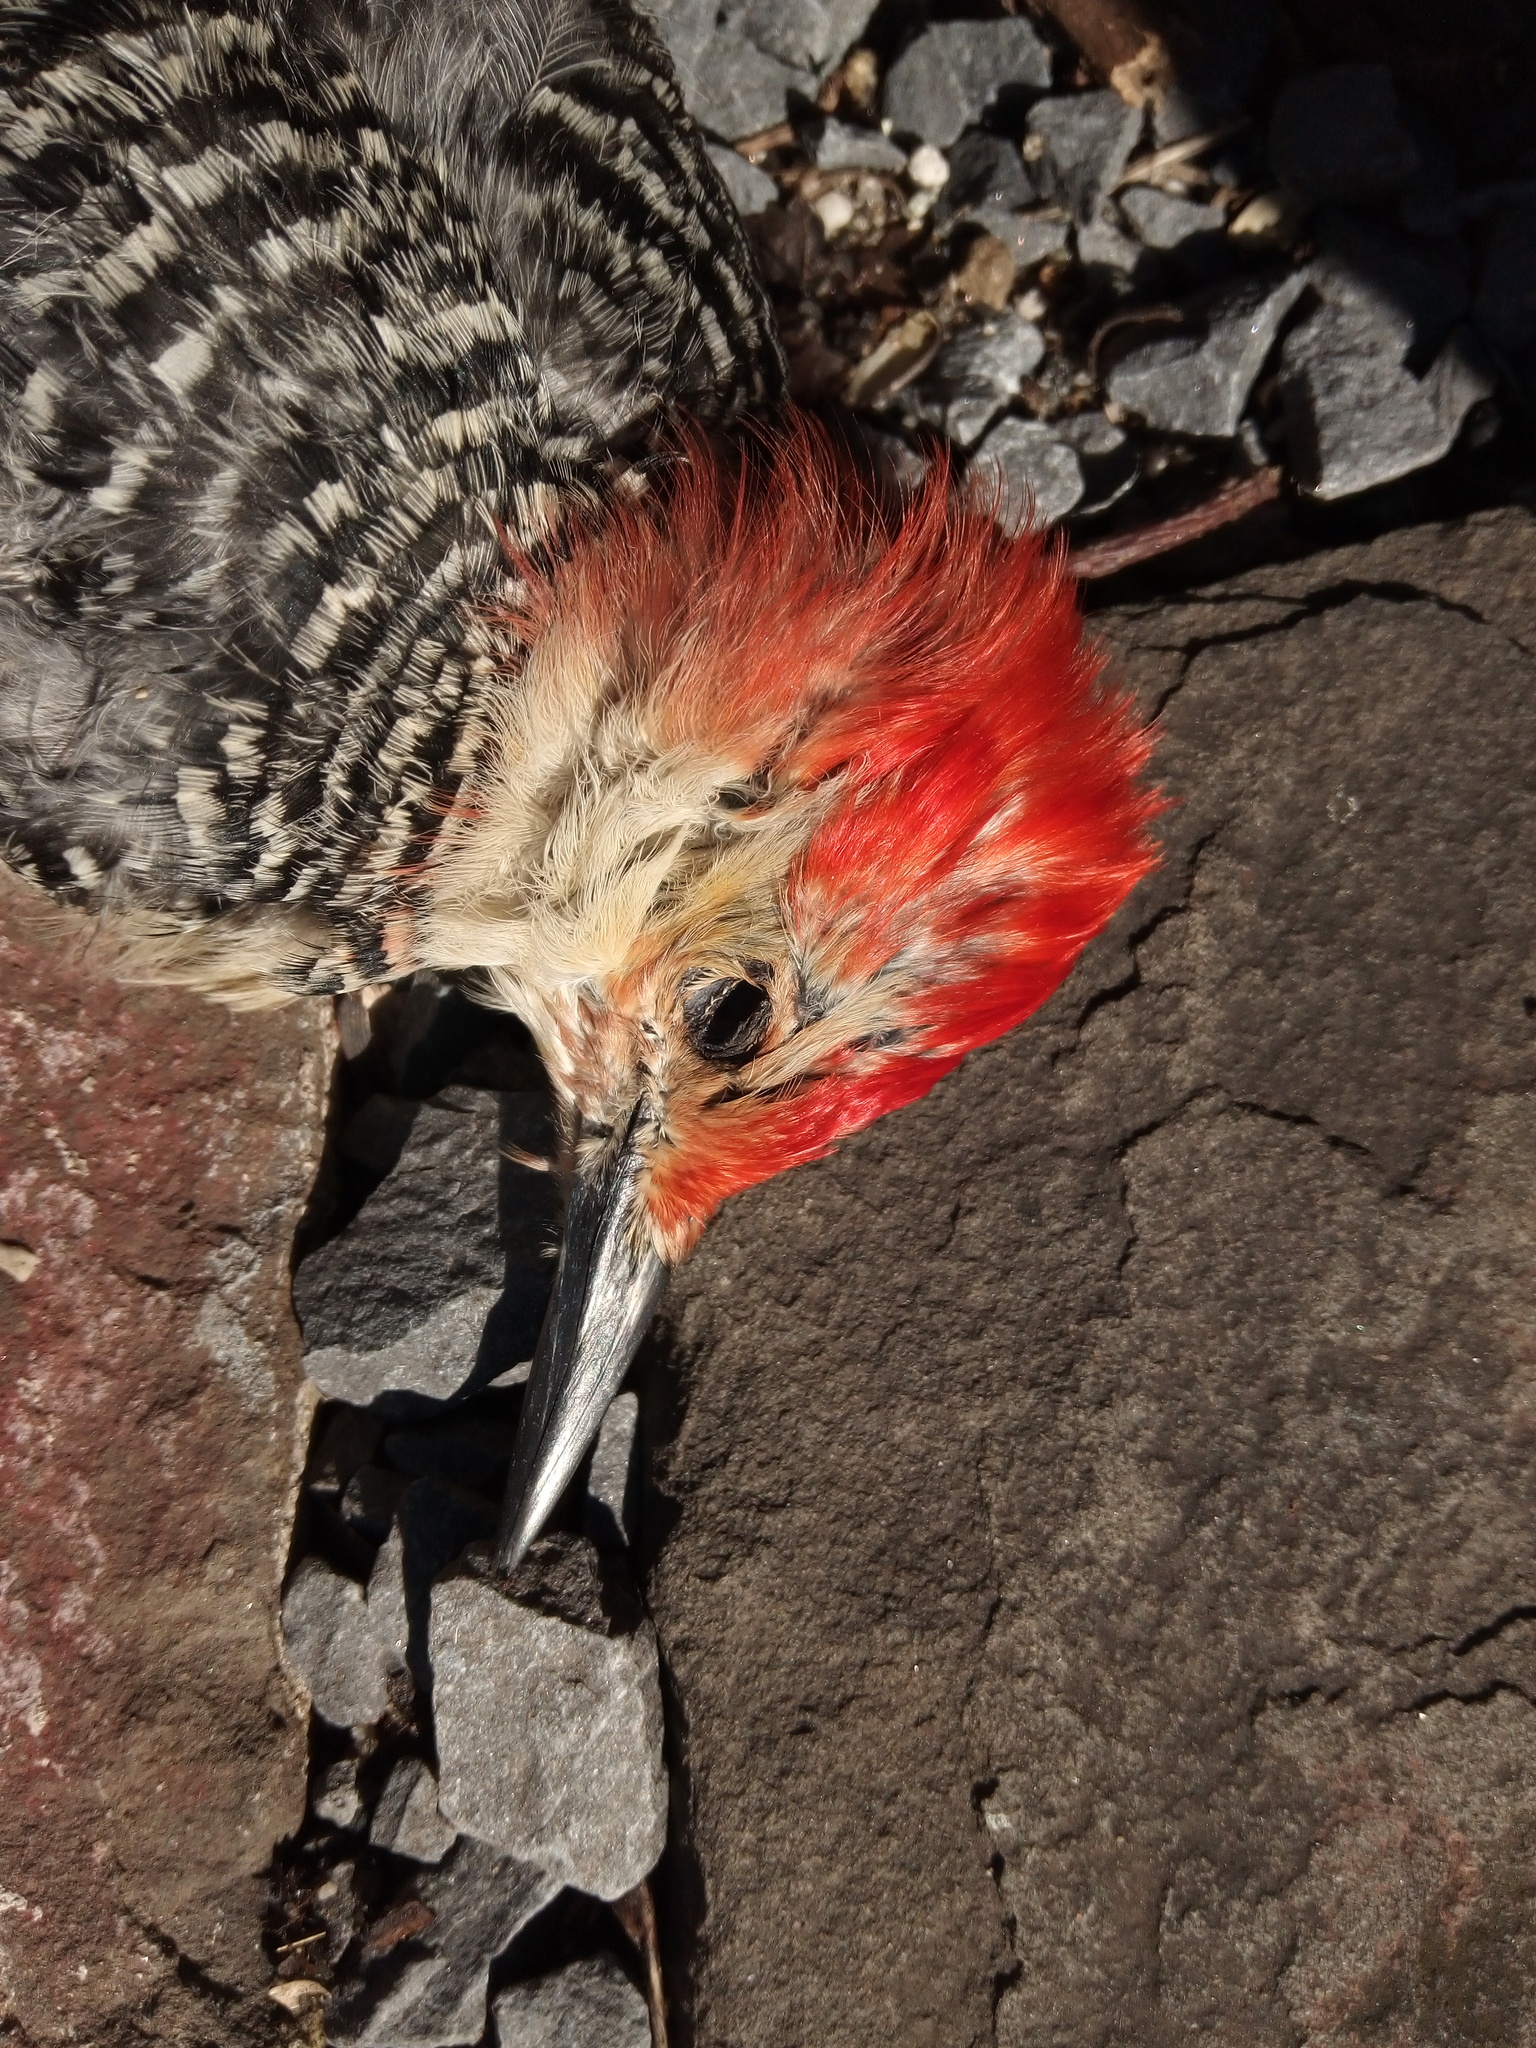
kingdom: Animalia
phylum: Chordata
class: Aves
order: Piciformes
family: Picidae
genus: Melanerpes
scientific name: Melanerpes carolinus
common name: Red-bellied woodpecker
